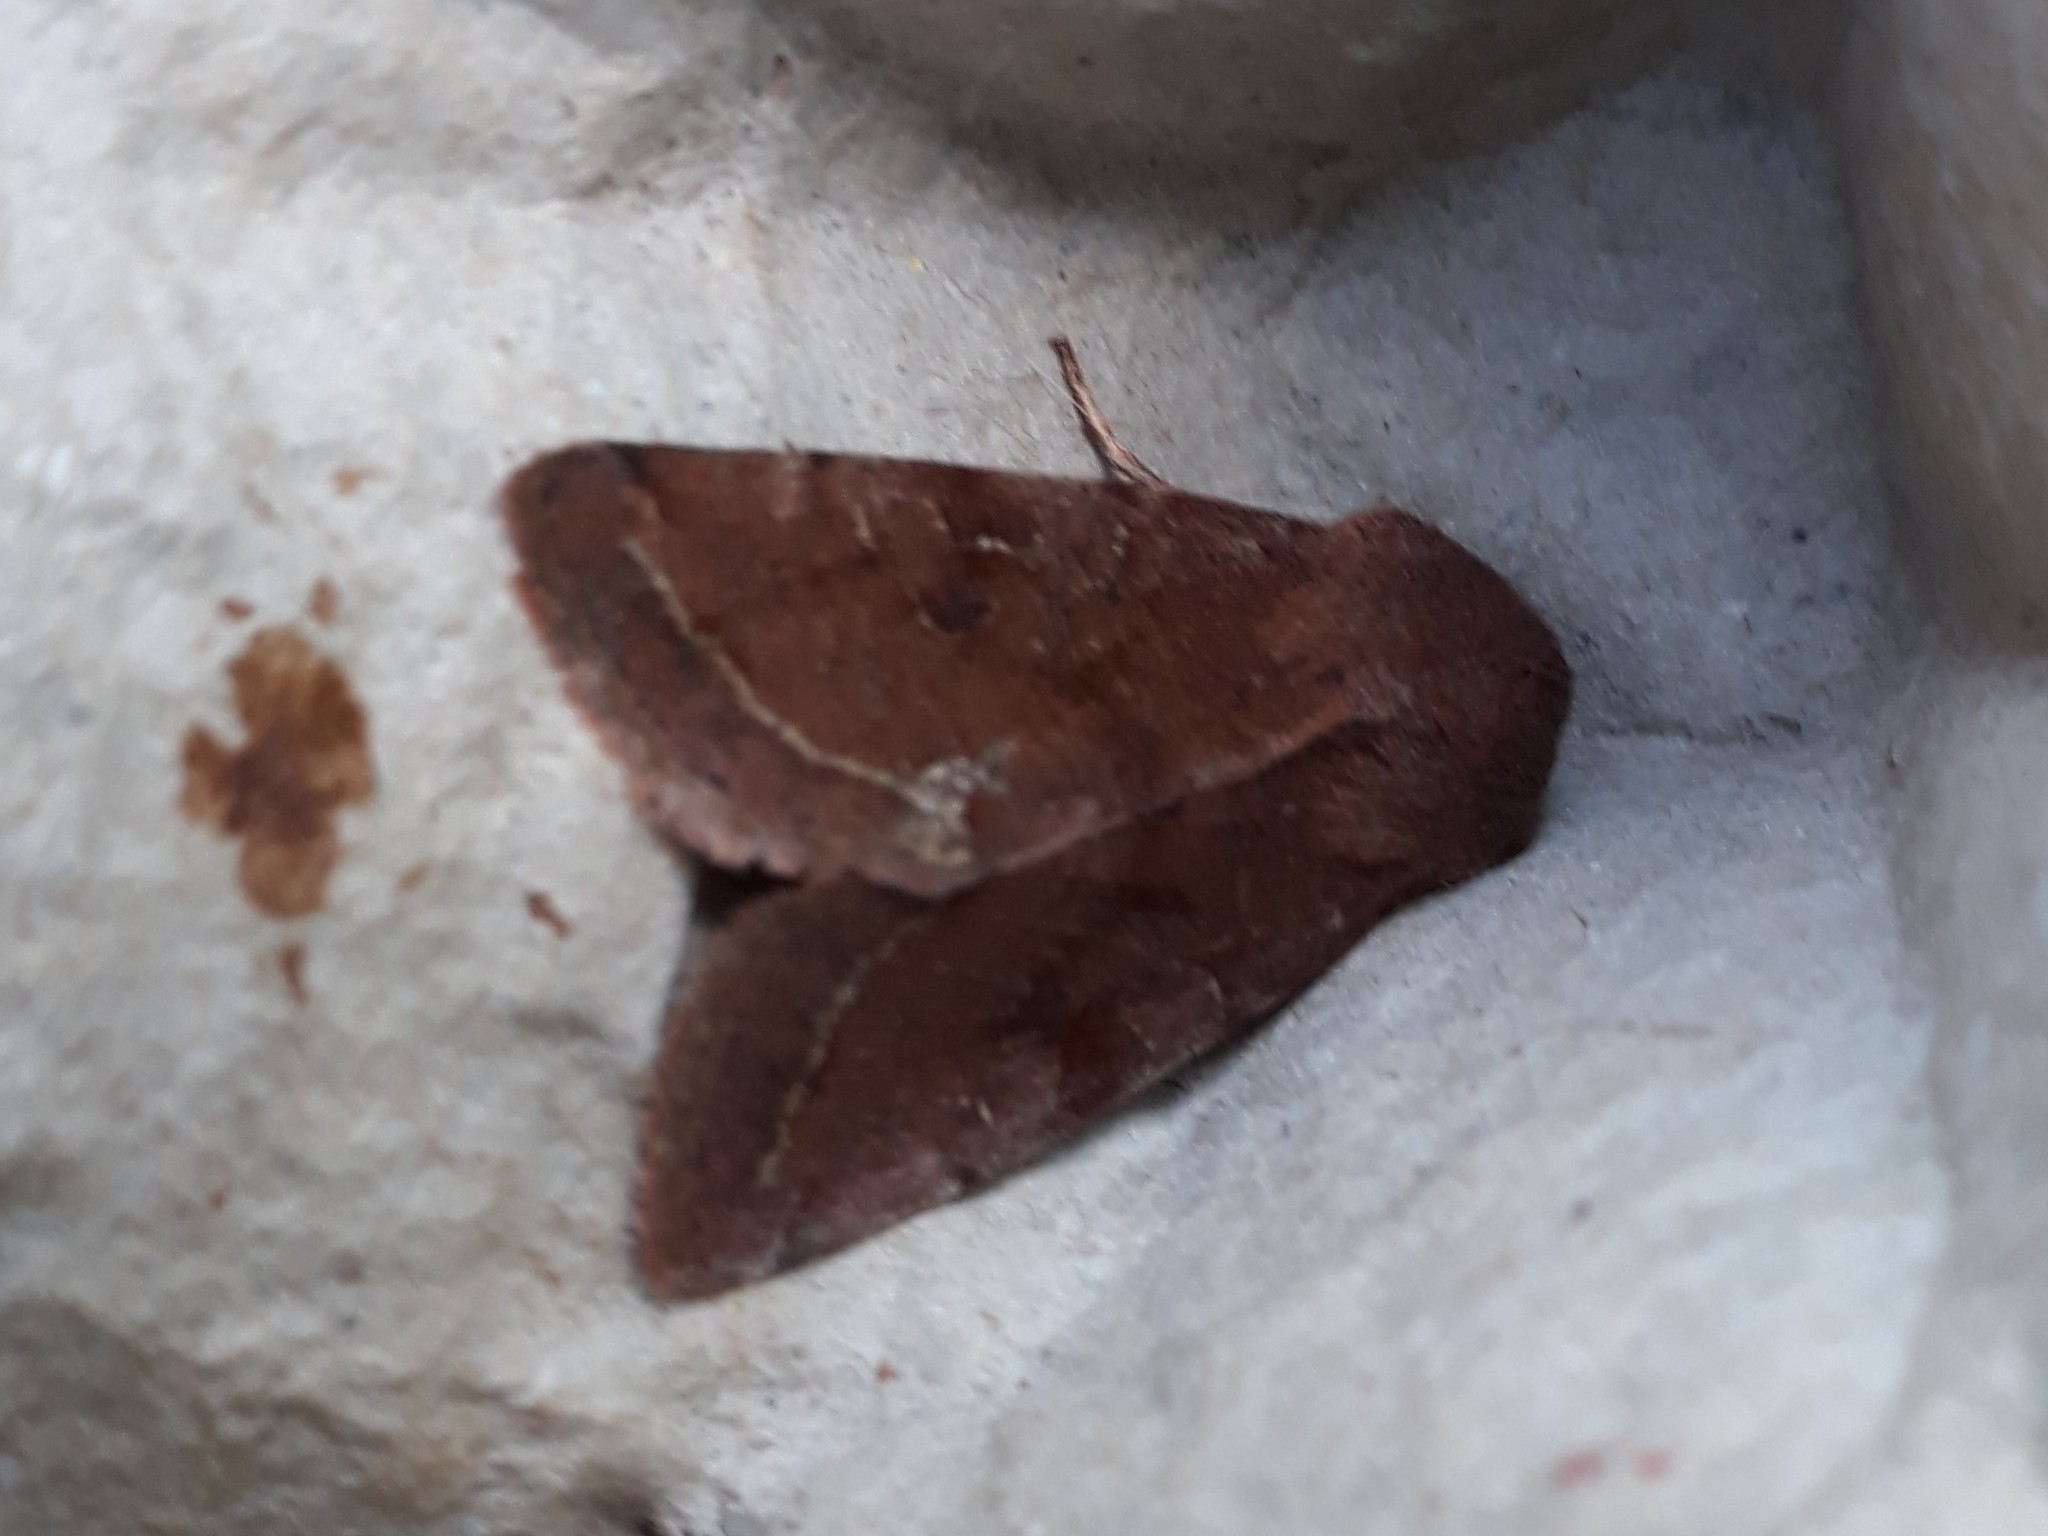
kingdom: Animalia
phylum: Arthropoda
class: Insecta
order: Lepidoptera
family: Noctuidae
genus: Orthosia
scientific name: Orthosia incerta
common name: Clouded drab
